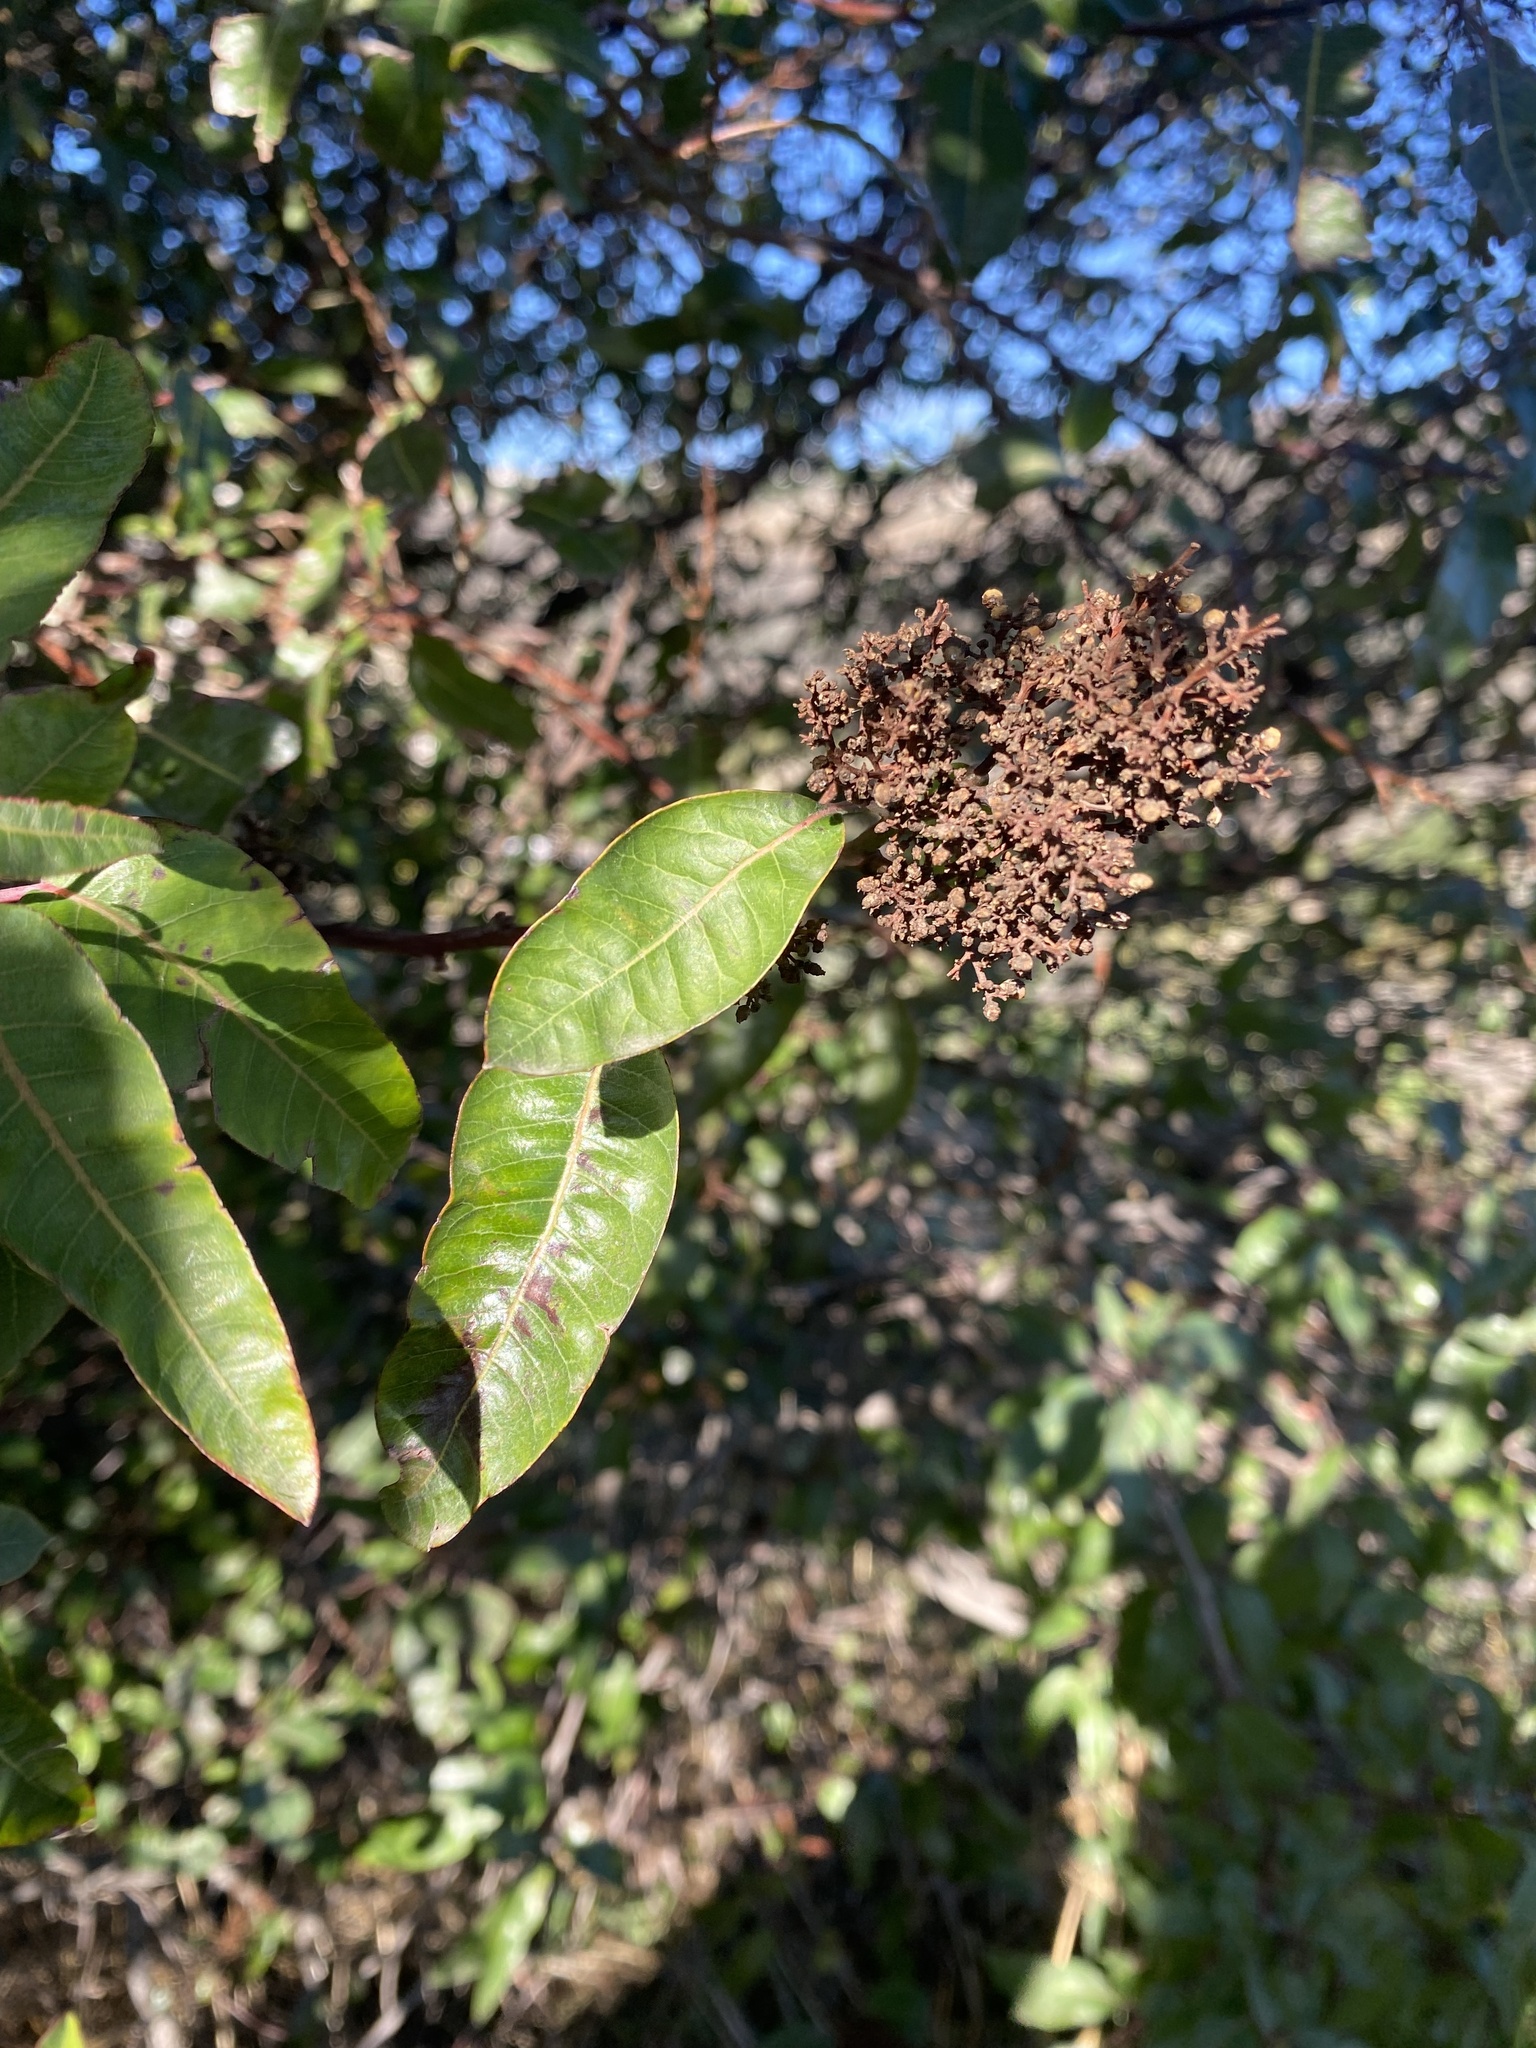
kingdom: Plantae
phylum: Tracheophyta
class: Magnoliopsida
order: Sapindales
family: Anacardiaceae
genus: Malosma
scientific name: Malosma laurina
